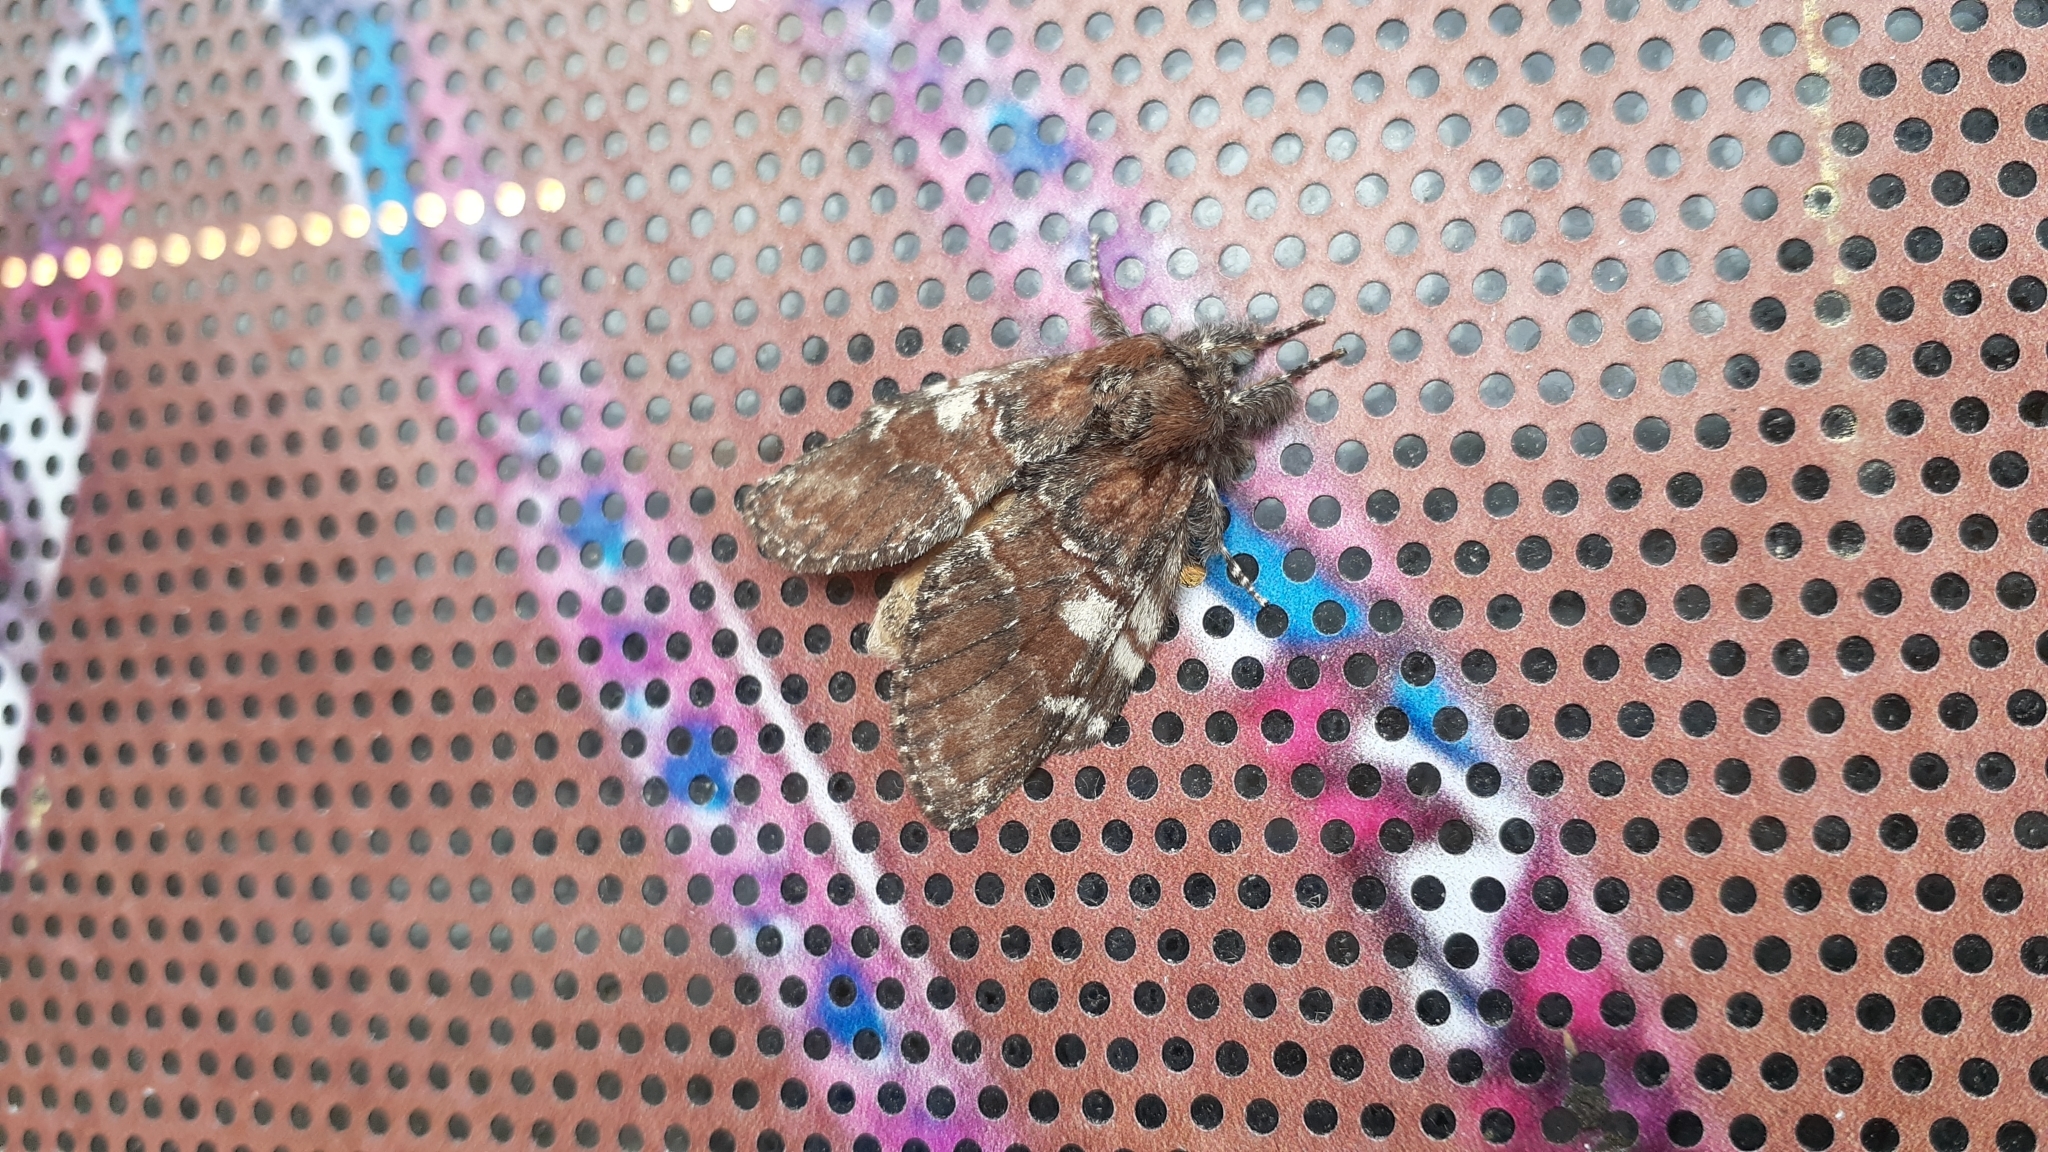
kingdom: Animalia
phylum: Arthropoda
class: Insecta
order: Lepidoptera
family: Notodontidae
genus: Peridea
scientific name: Peridea ferruginea
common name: Chocolate prominent
